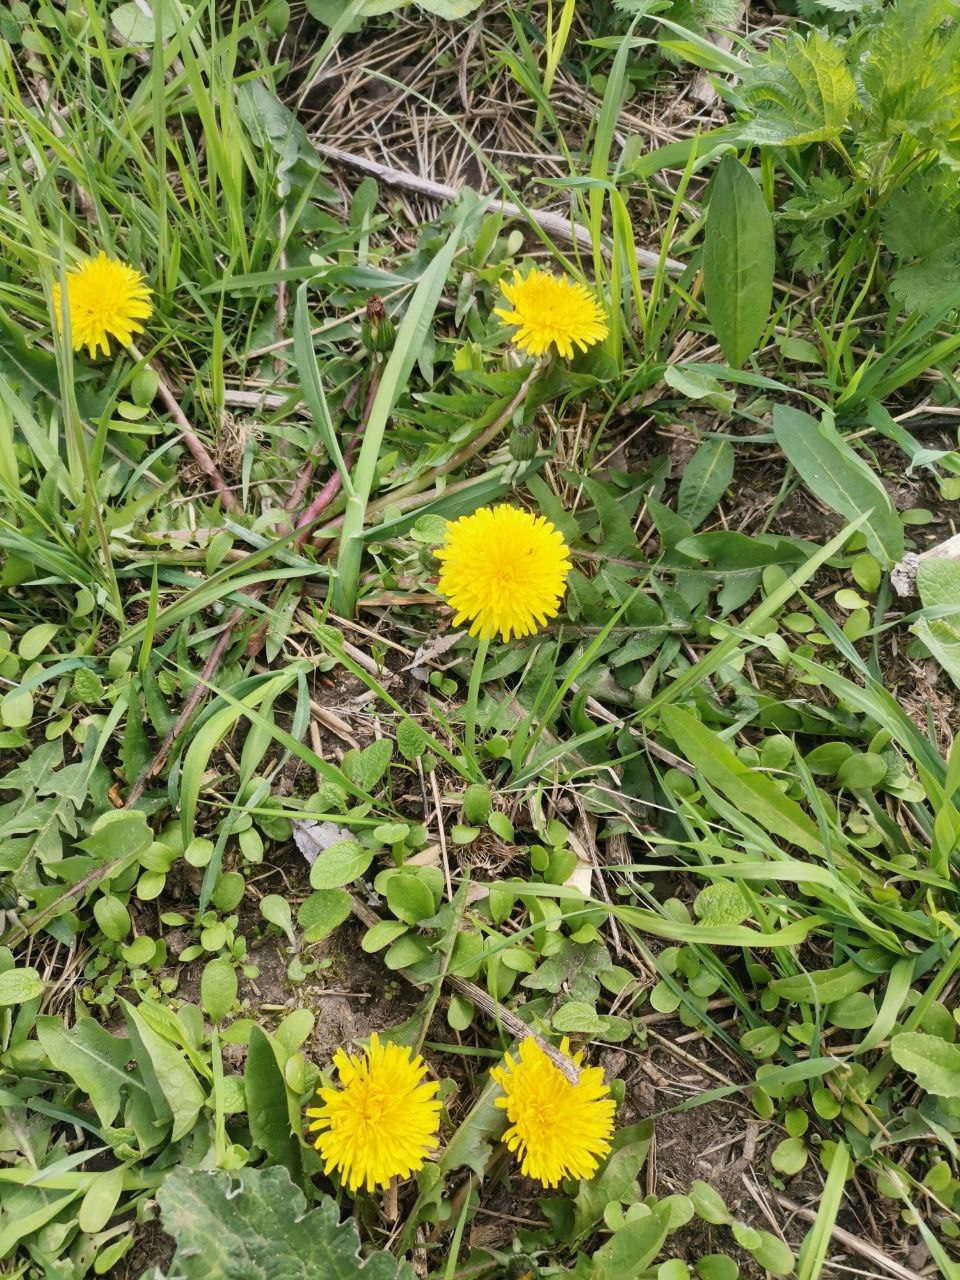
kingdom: Plantae
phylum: Tracheophyta
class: Magnoliopsida
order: Asterales
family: Asteraceae
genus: Taraxacum
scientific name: Taraxacum officinale
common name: Common dandelion
